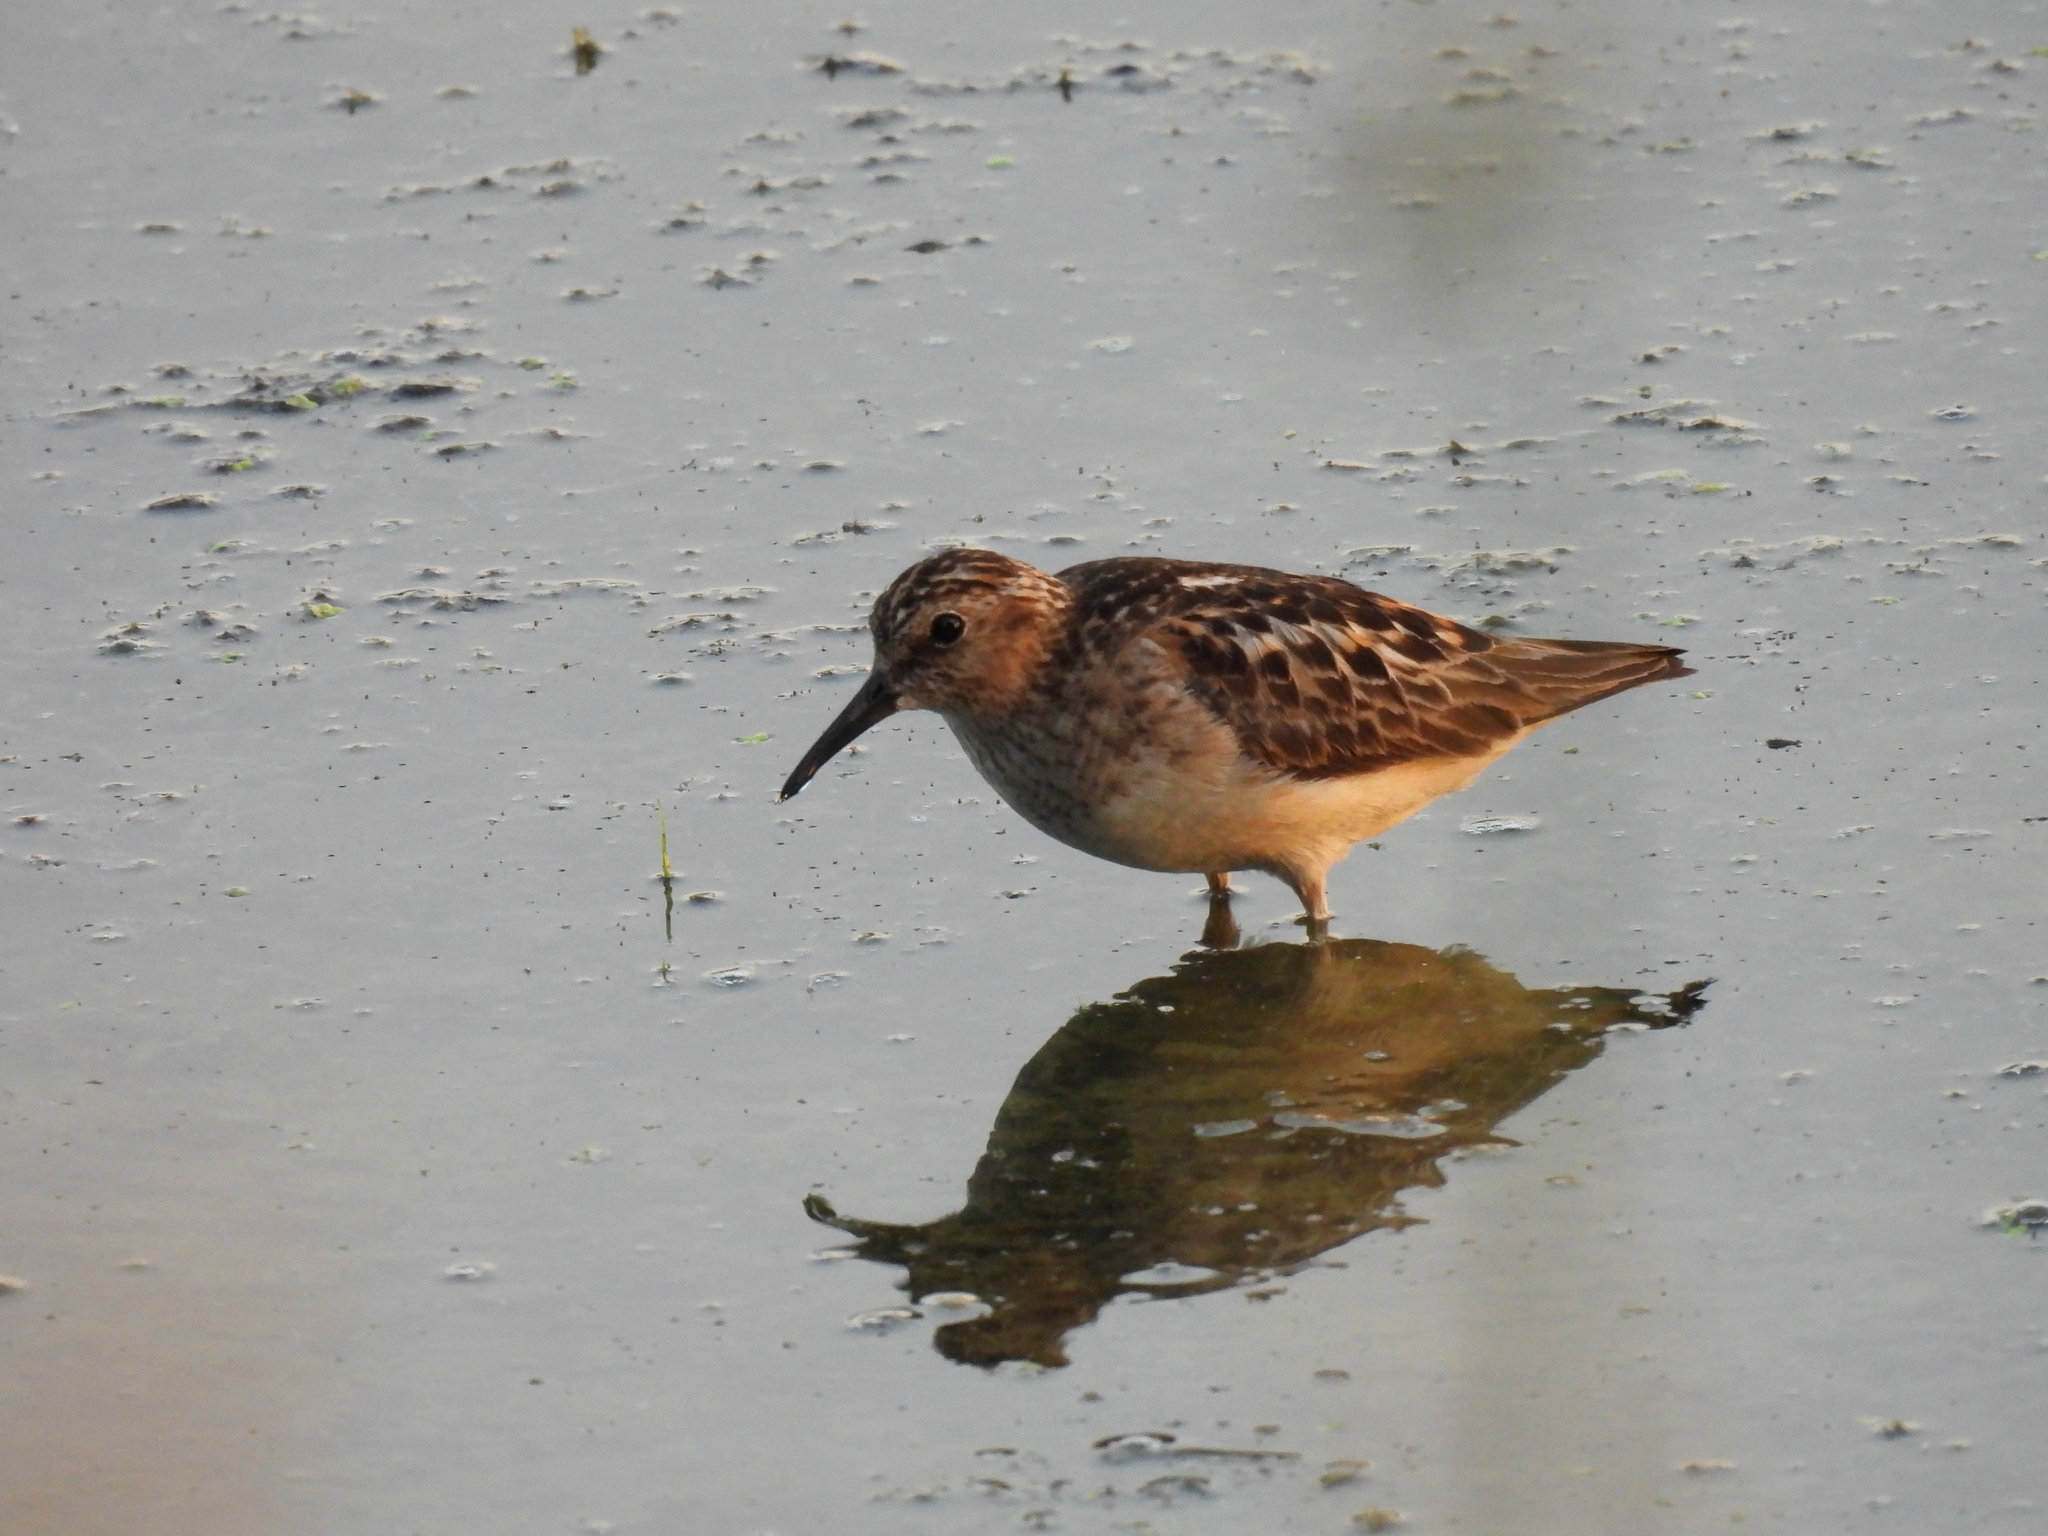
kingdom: Animalia
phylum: Chordata
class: Aves
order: Charadriiformes
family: Scolopacidae
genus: Calidris
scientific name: Calidris minutilla
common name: Least sandpiper
